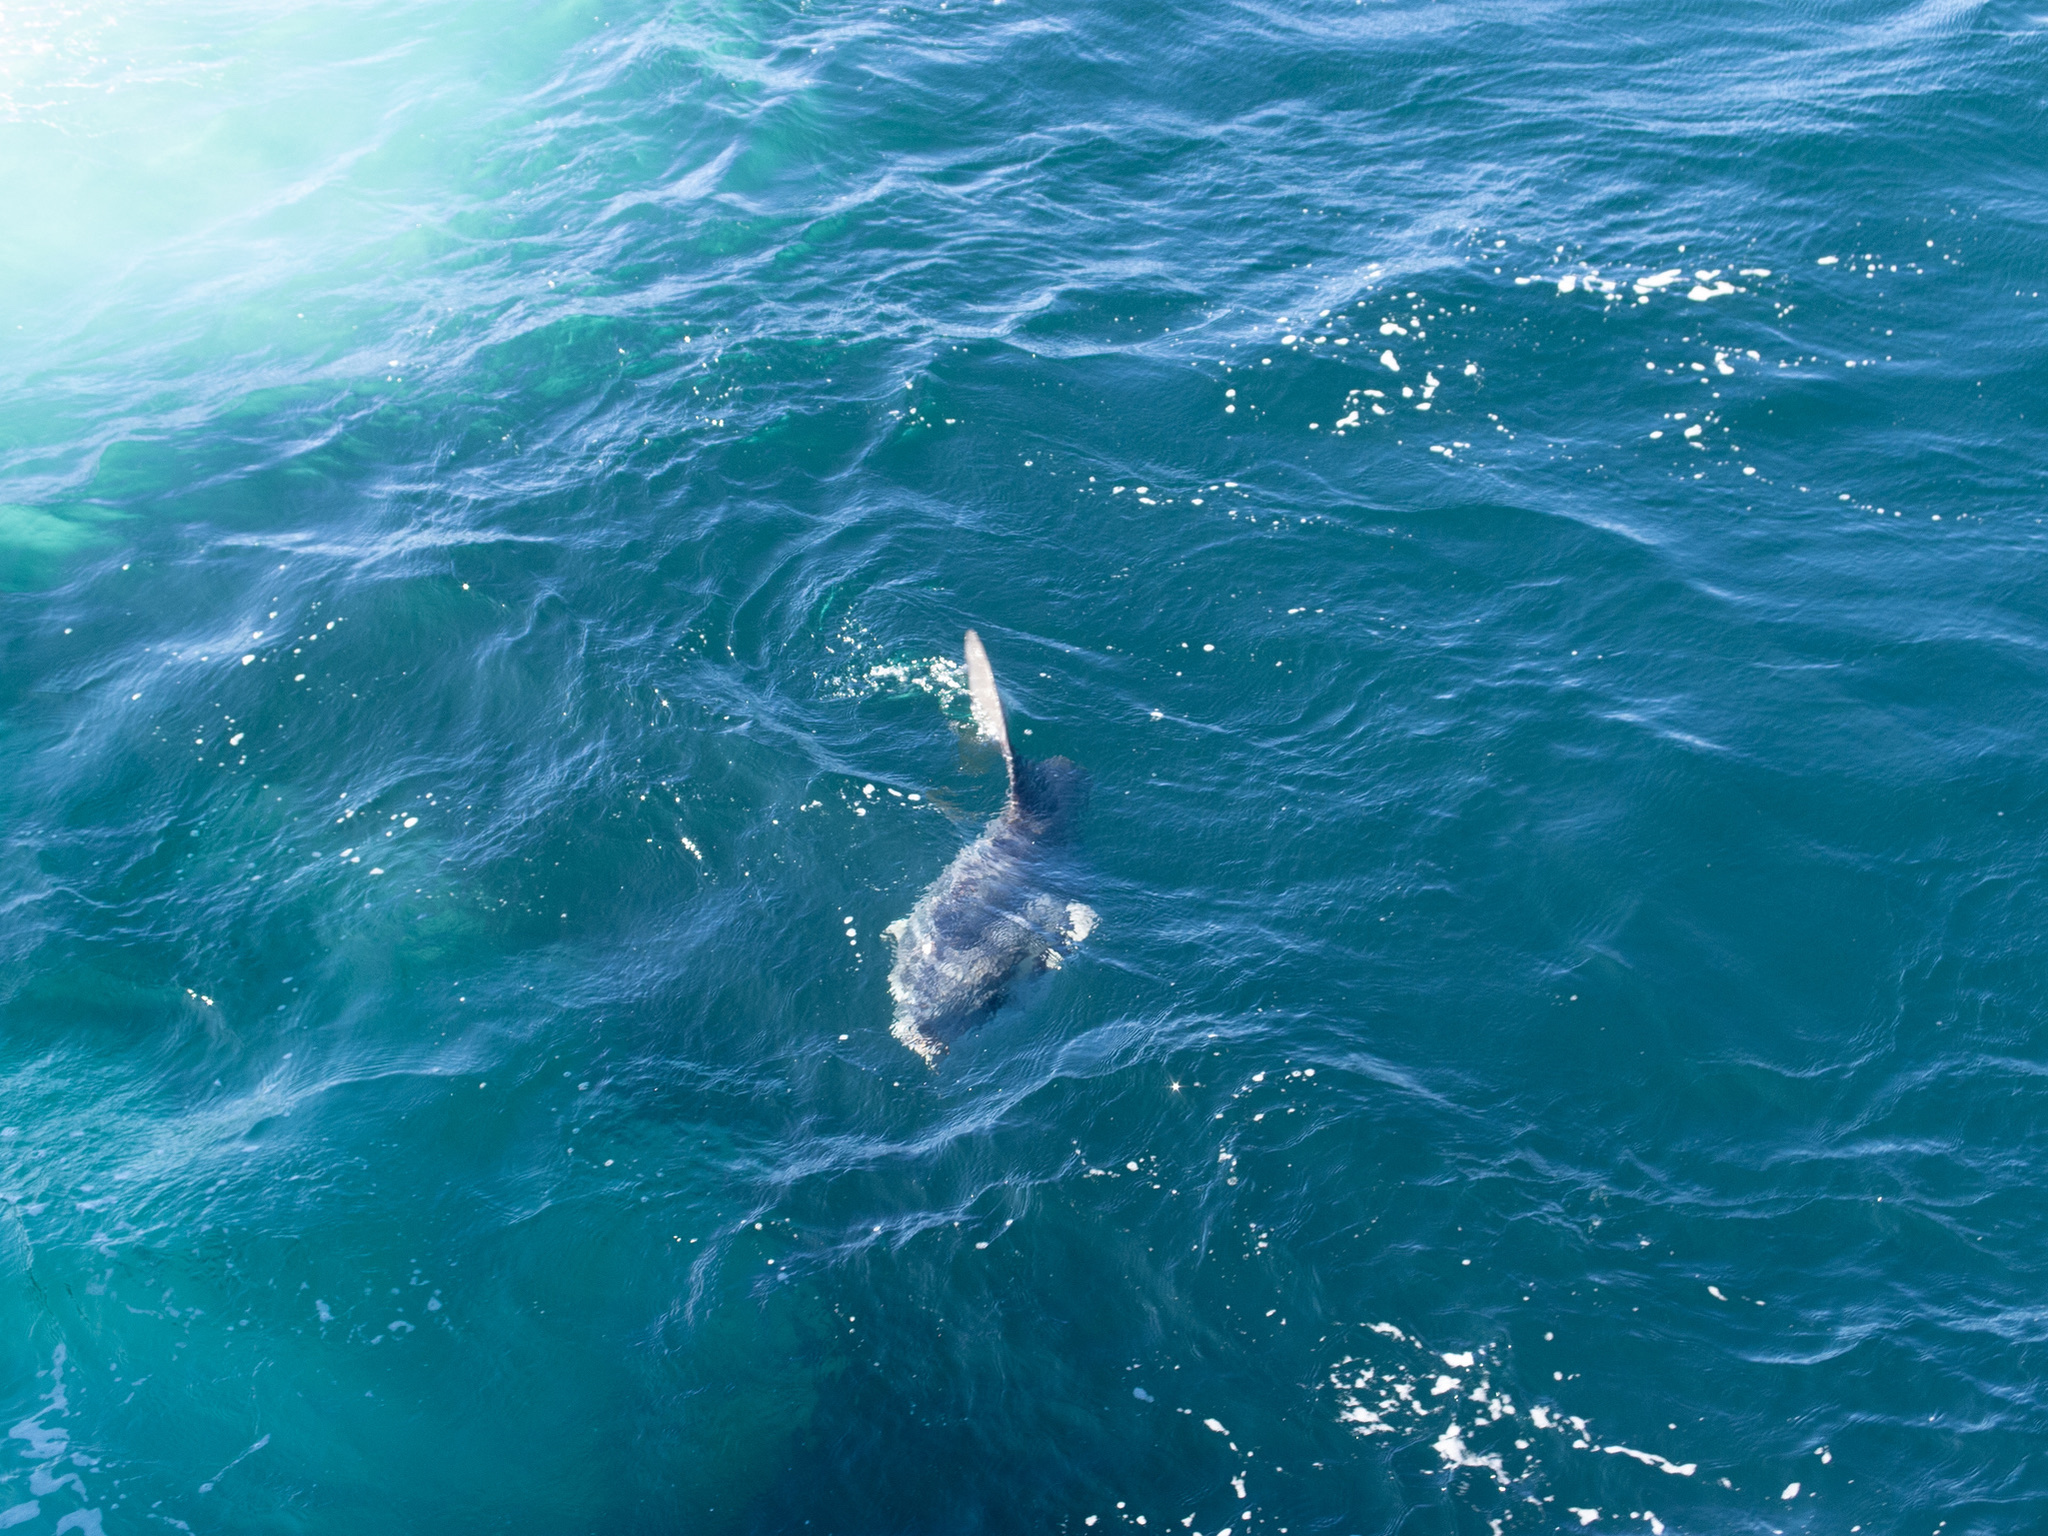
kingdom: Animalia
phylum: Chordata
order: Tetraodontiformes
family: Molidae
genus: Mola
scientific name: Mola mola
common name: Ocean sunfish
